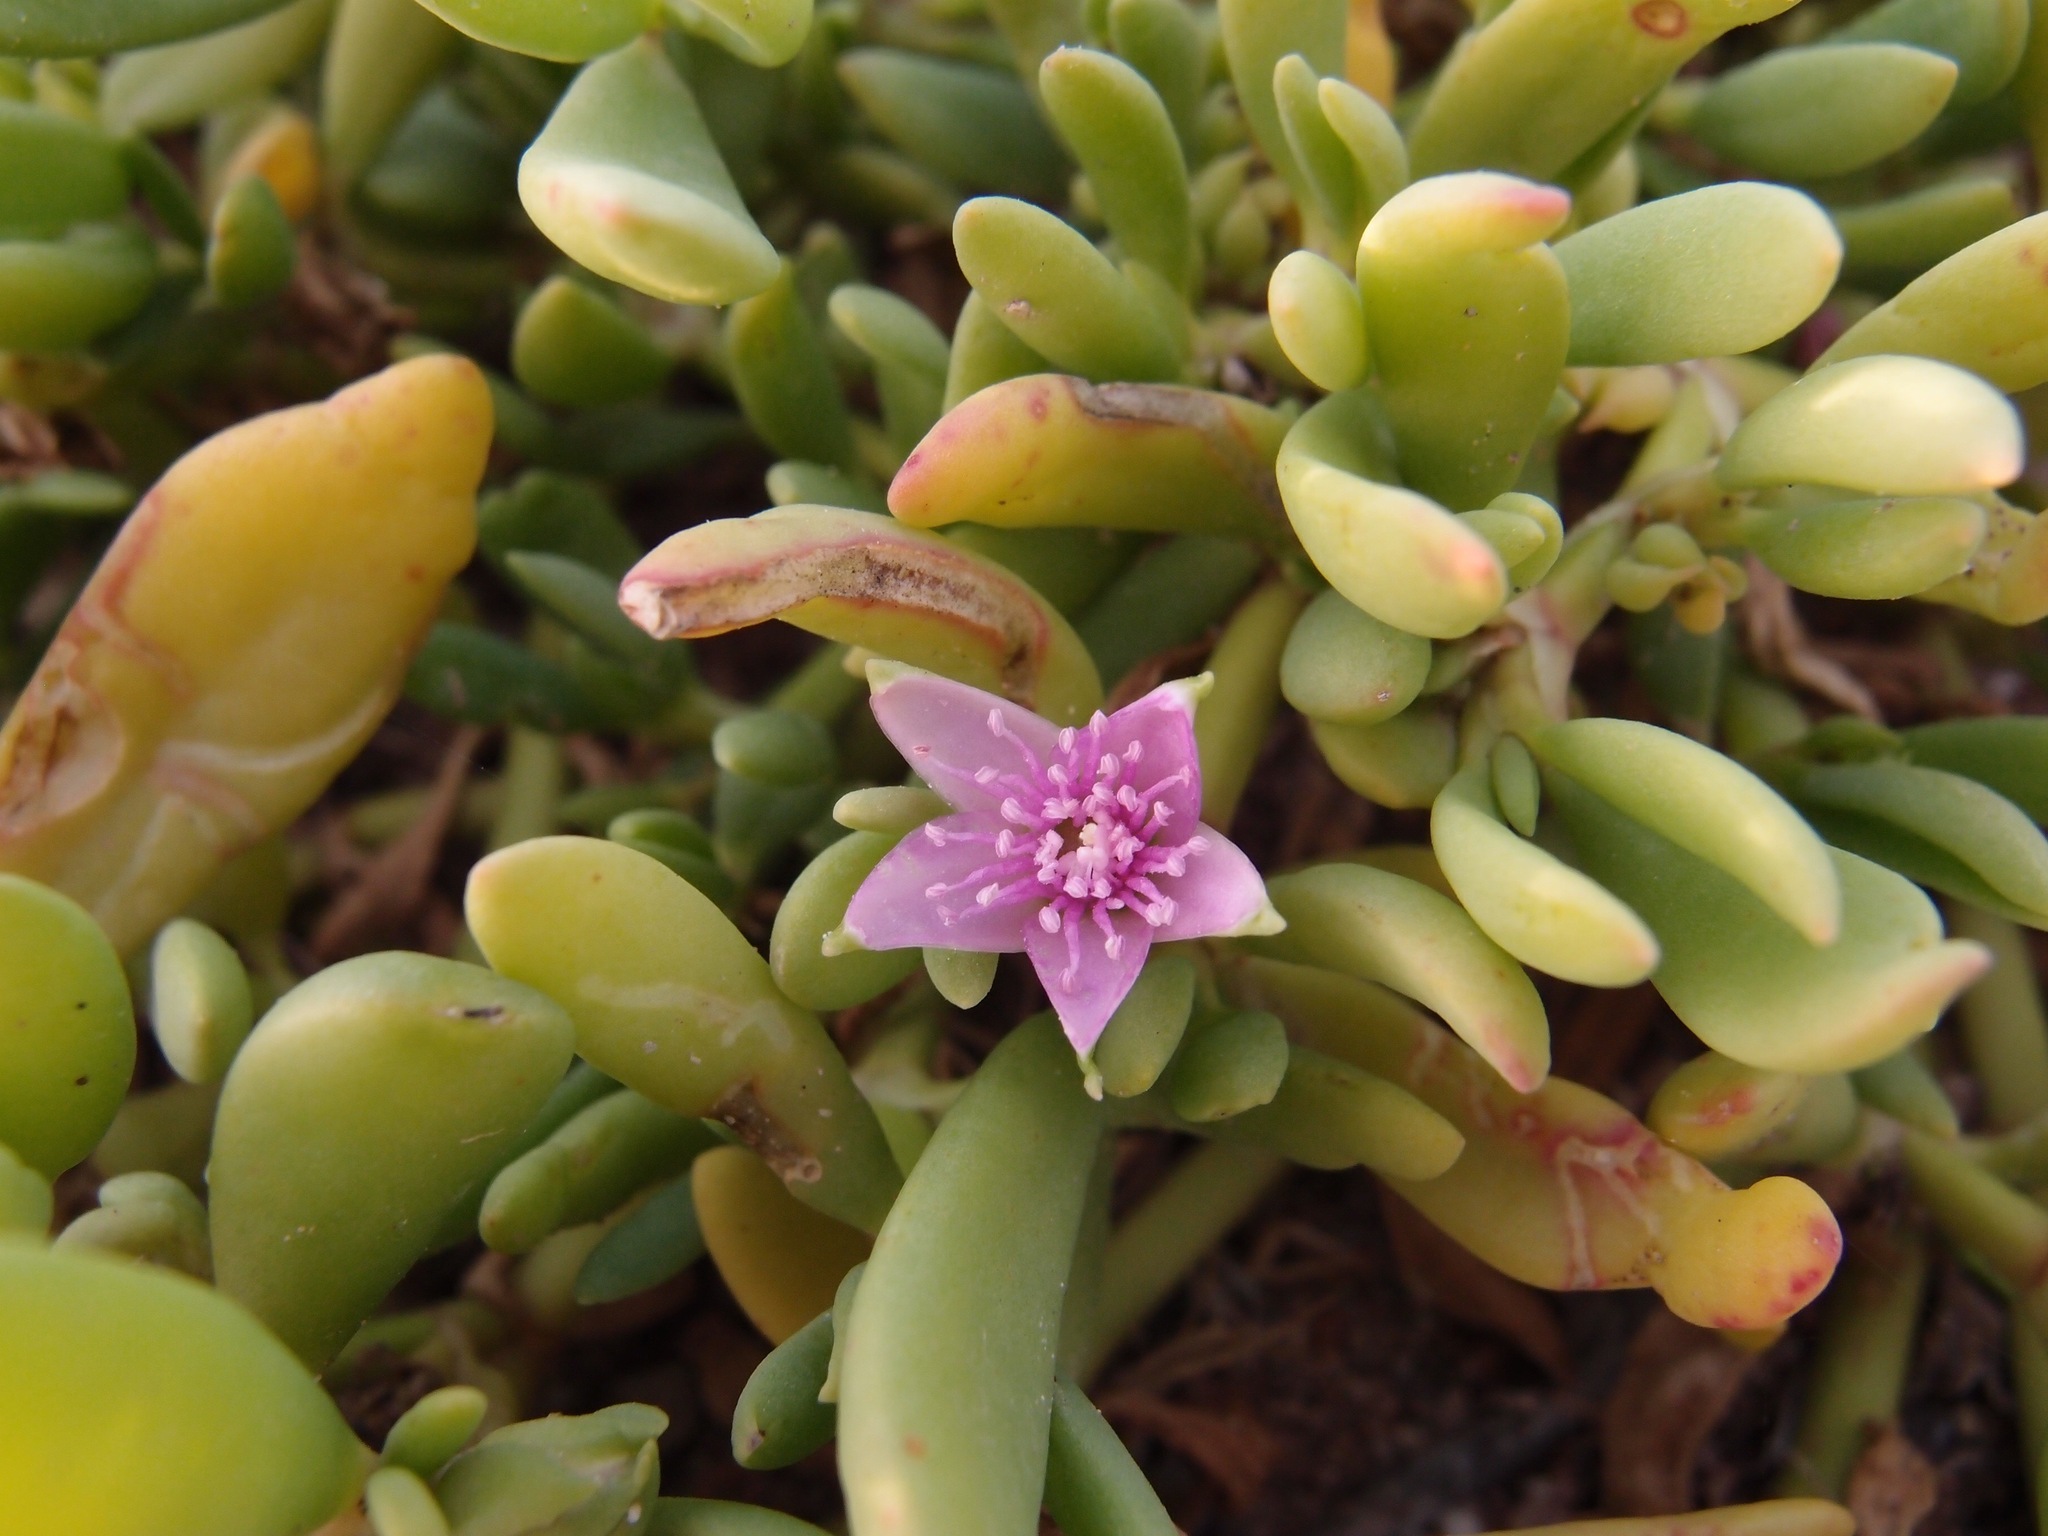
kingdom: Plantae
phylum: Tracheophyta
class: Magnoliopsida
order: Caryophyllales
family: Aizoaceae
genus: Sesuvium
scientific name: Sesuvium portulacastrum
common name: Sea-purslane
